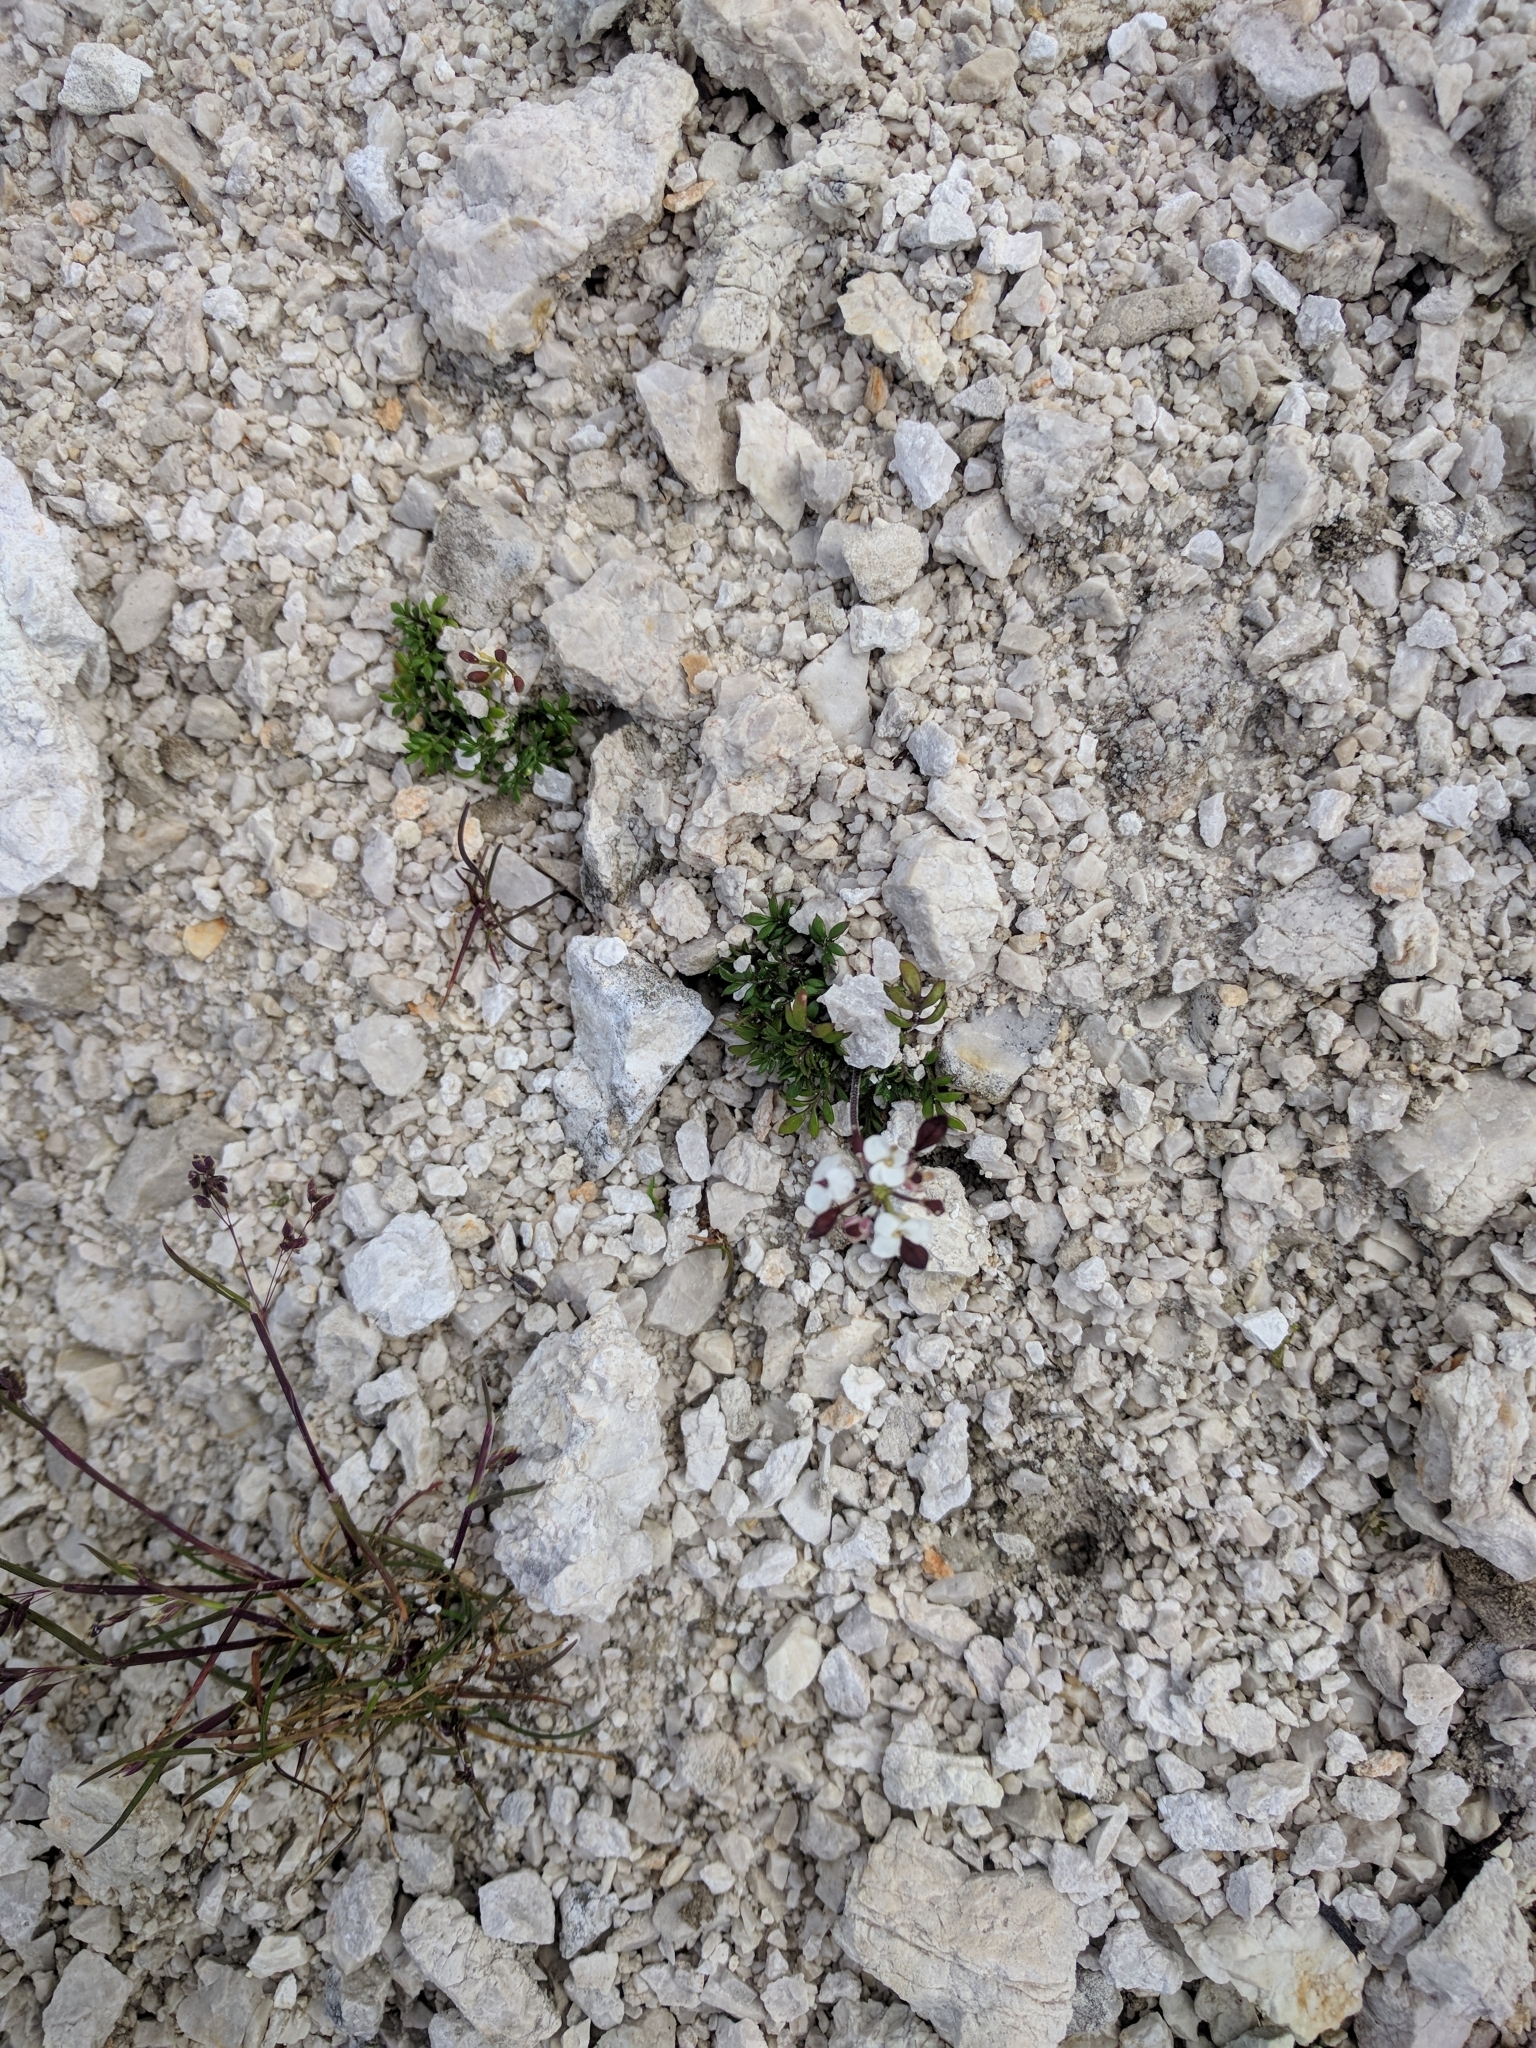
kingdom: Plantae
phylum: Tracheophyta
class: Magnoliopsida
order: Brassicales
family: Brassicaceae
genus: Hornungia
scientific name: Hornungia alpina
